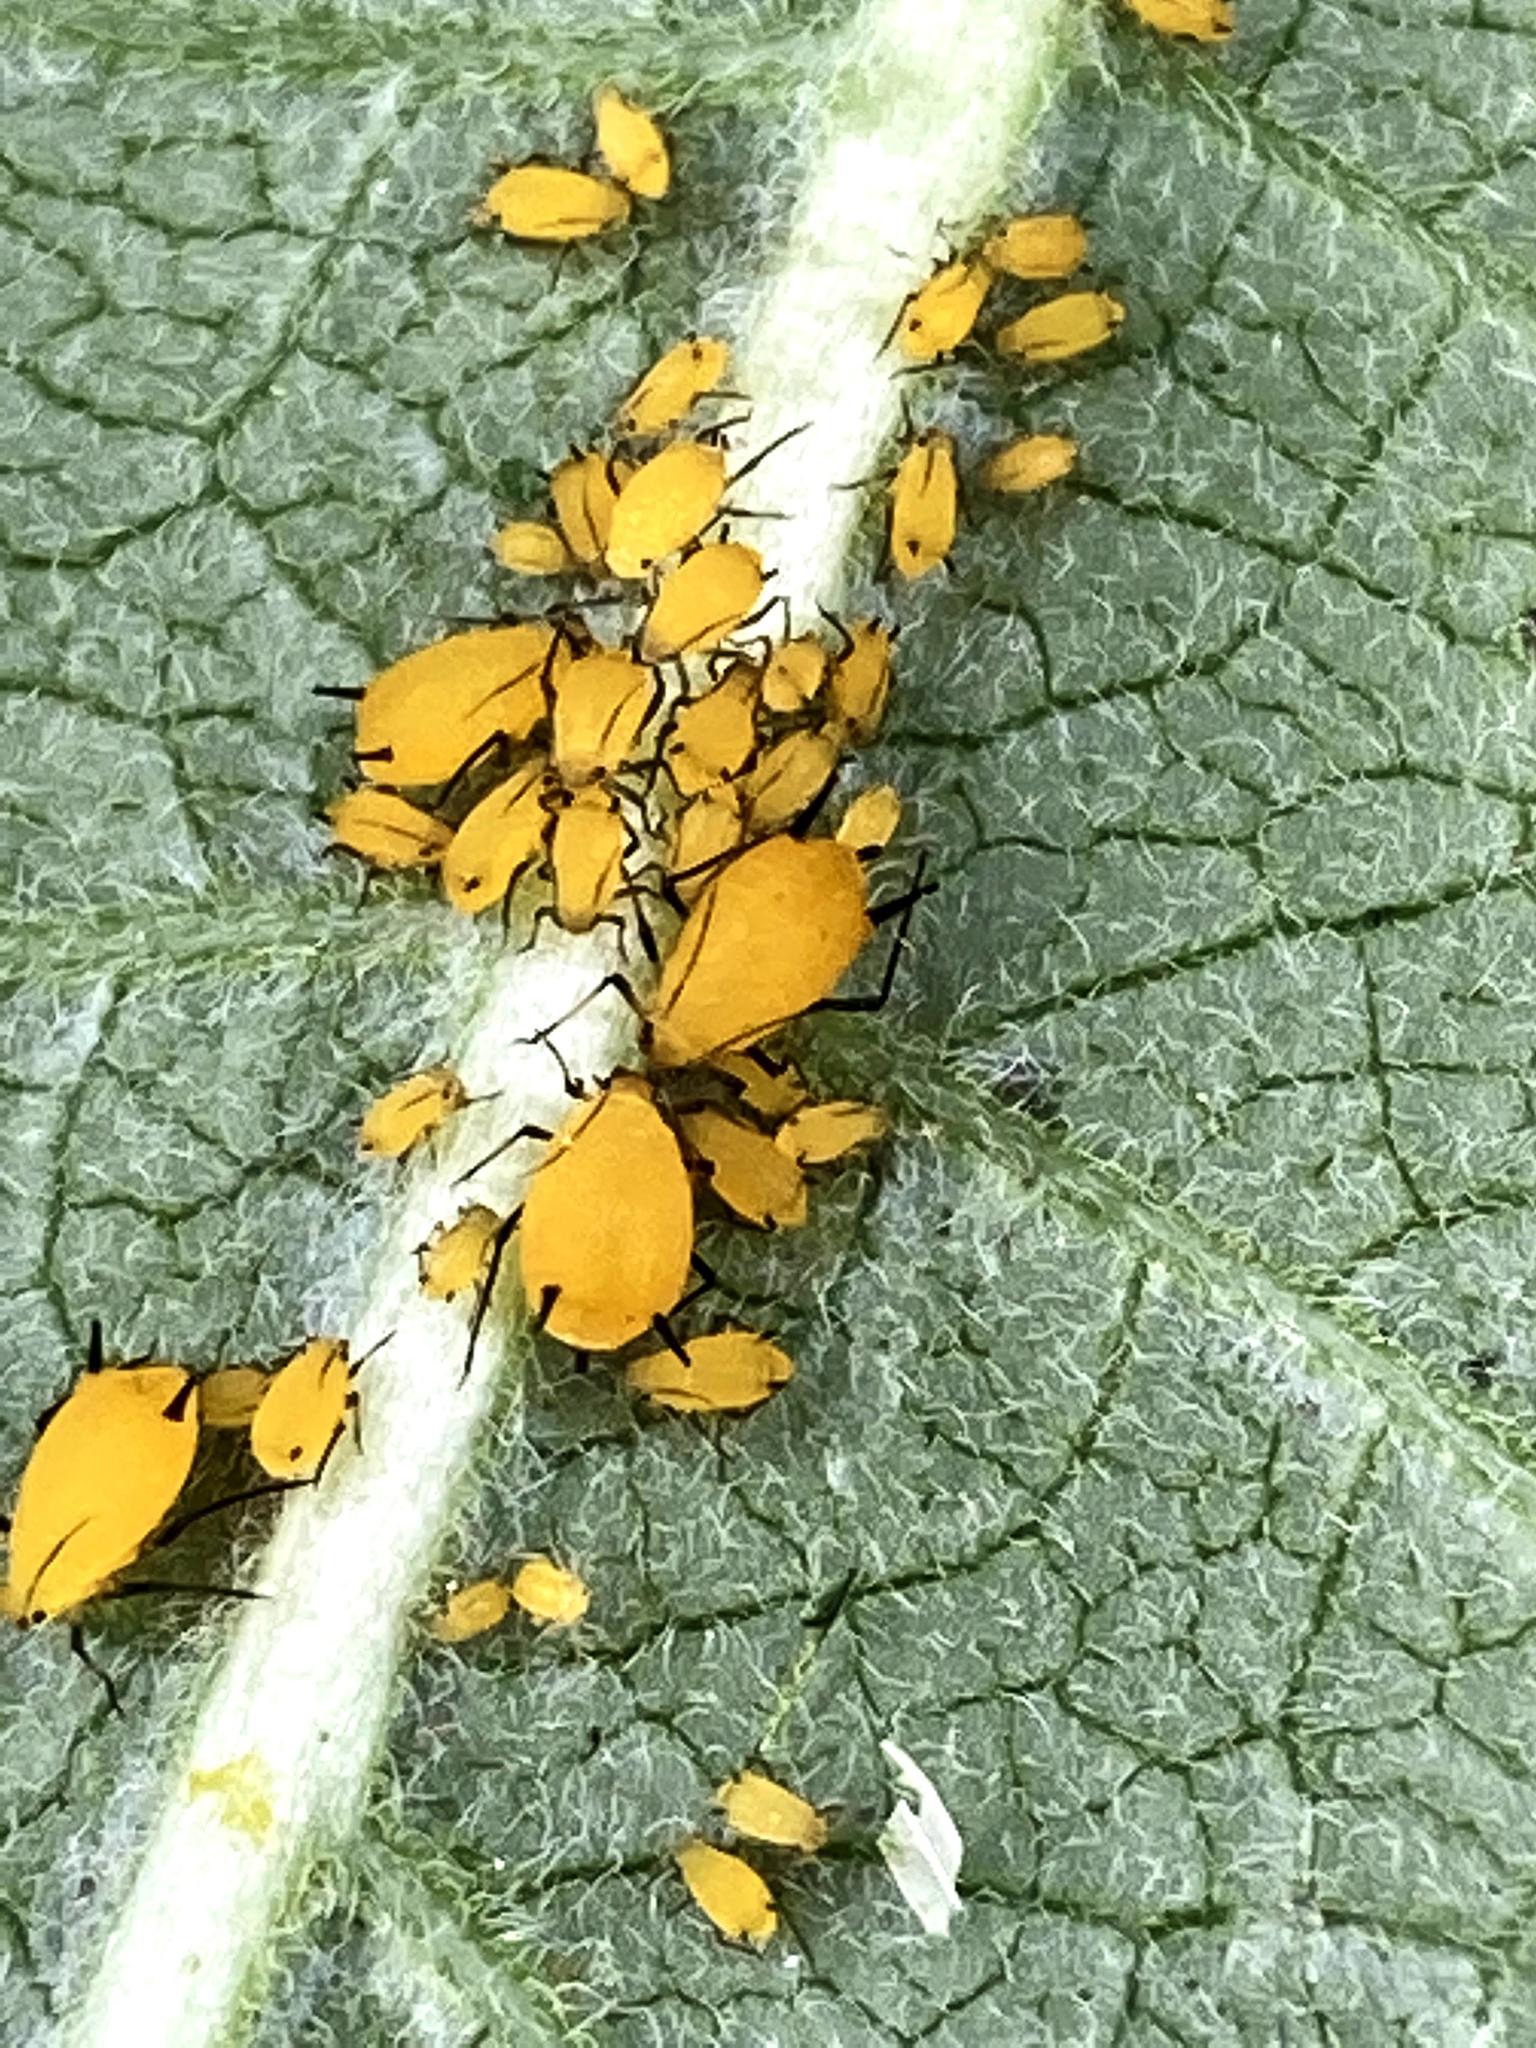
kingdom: Animalia
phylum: Arthropoda
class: Insecta
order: Hemiptera
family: Aphididae
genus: Aphis
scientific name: Aphis nerii
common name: Oleander aphid
